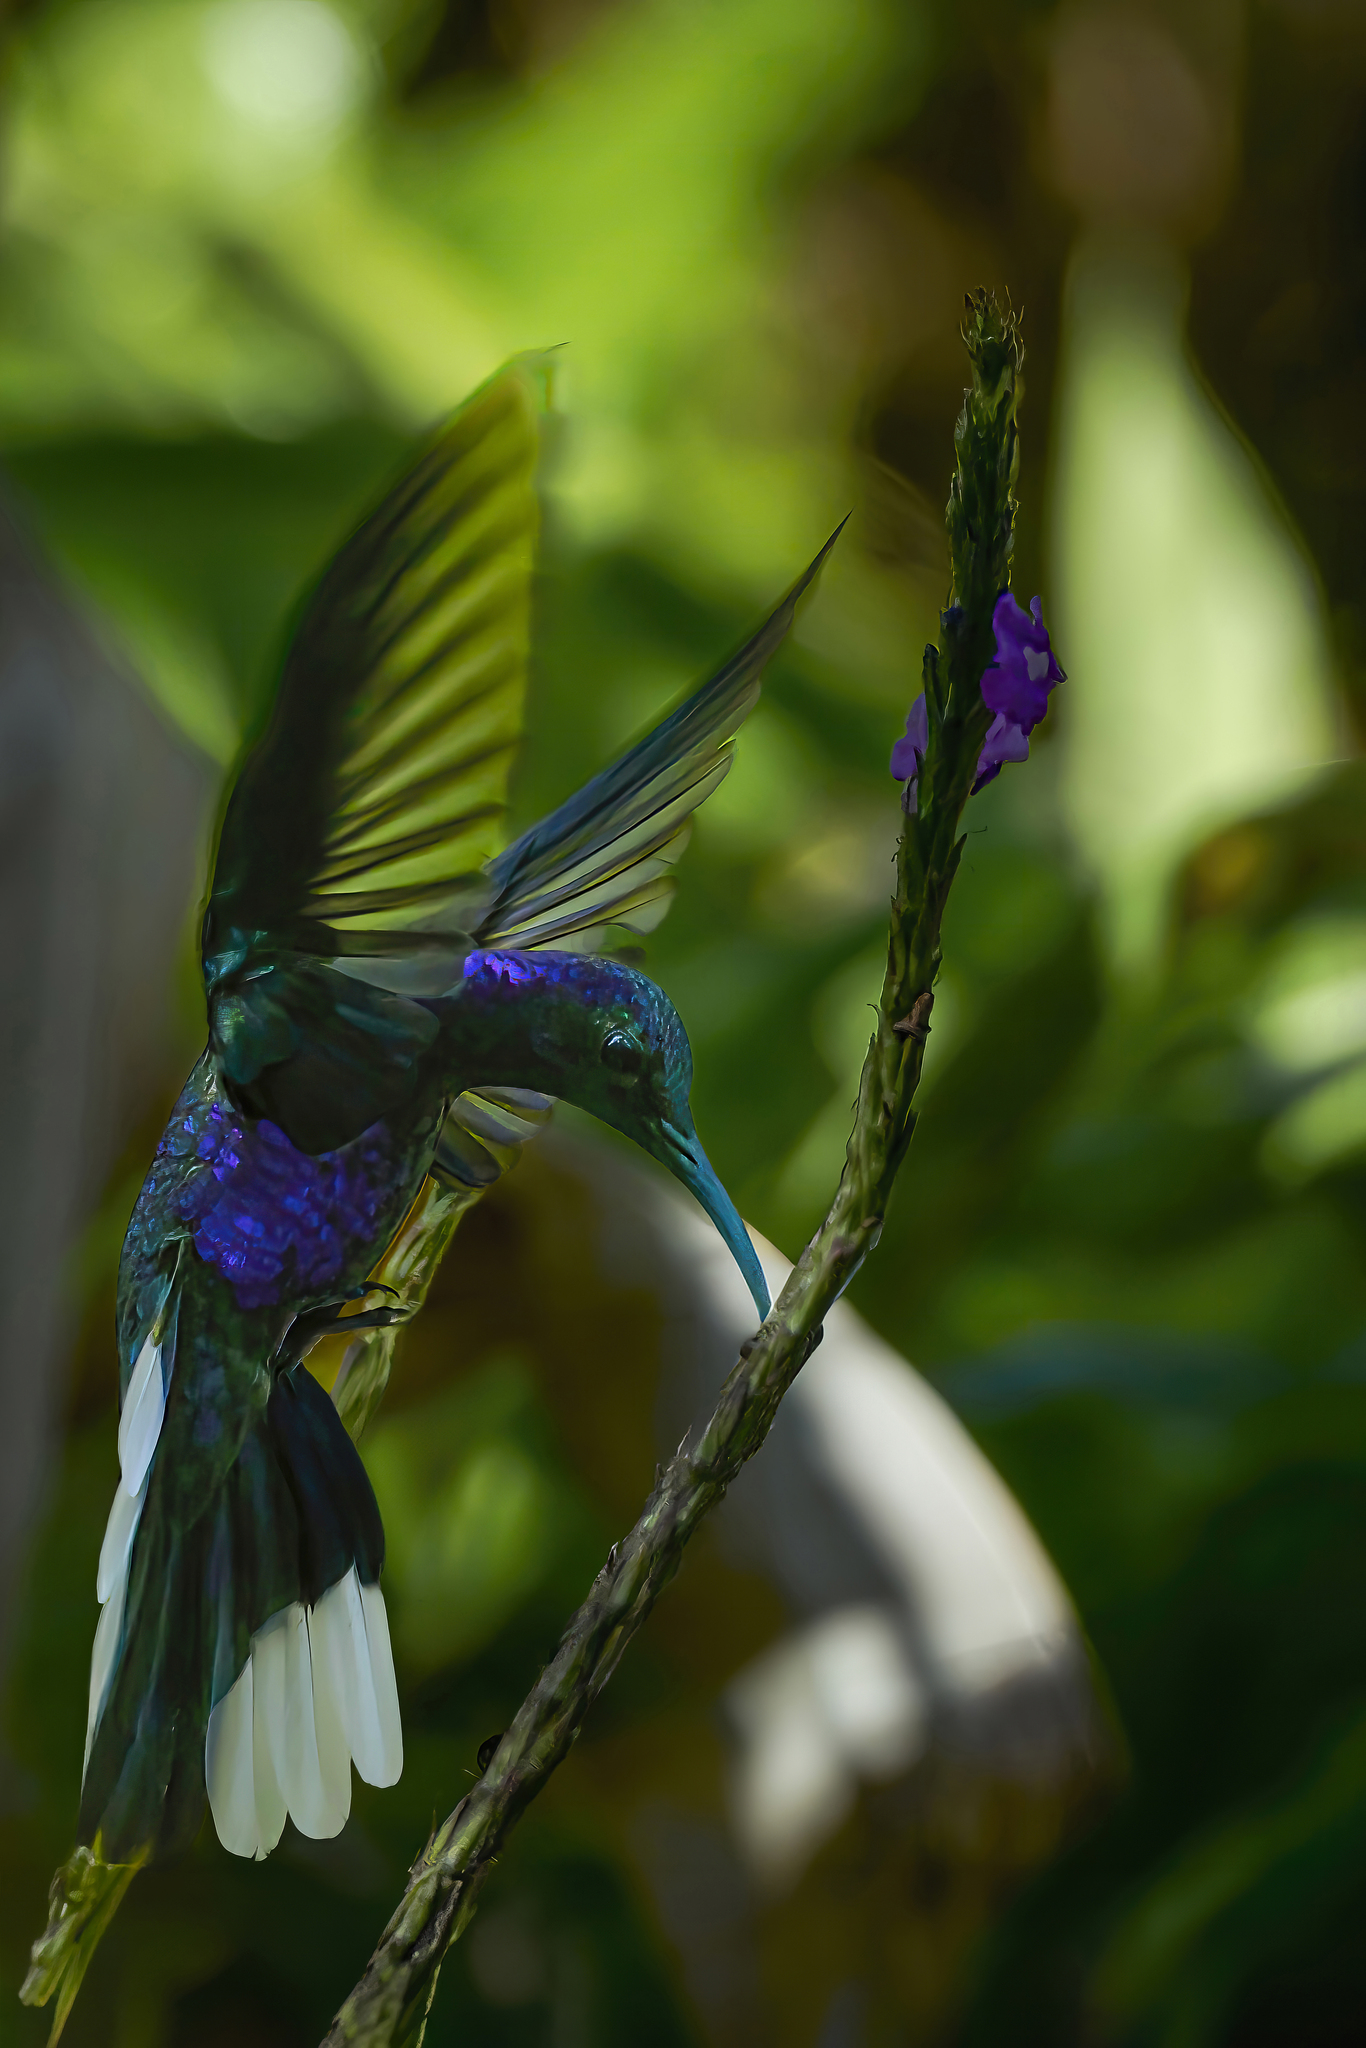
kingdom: Animalia
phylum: Chordata
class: Aves
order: Apodiformes
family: Trochilidae
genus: Campylopterus
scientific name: Campylopterus hemileucurus
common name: Violet sabrewing
